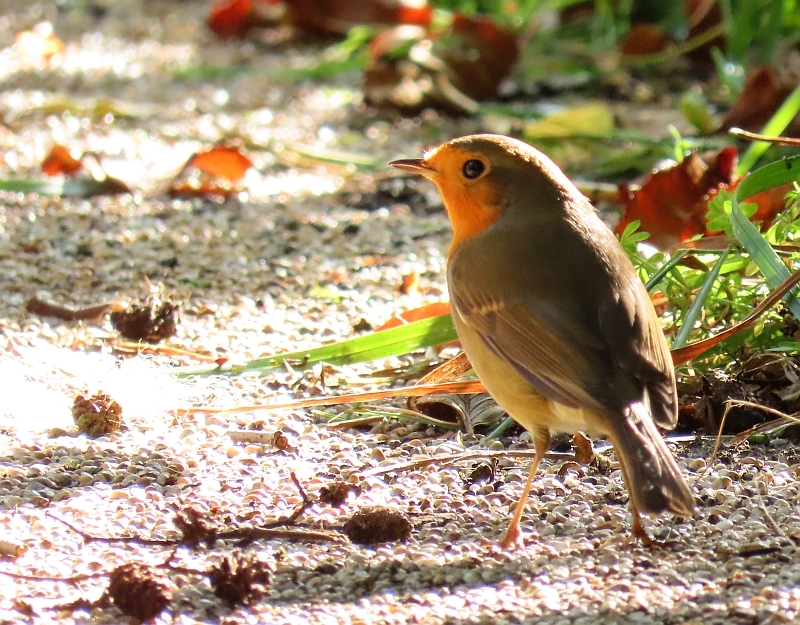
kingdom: Animalia
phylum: Chordata
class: Aves
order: Passeriformes
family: Muscicapidae
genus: Erithacus
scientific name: Erithacus rubecula
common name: European robin
